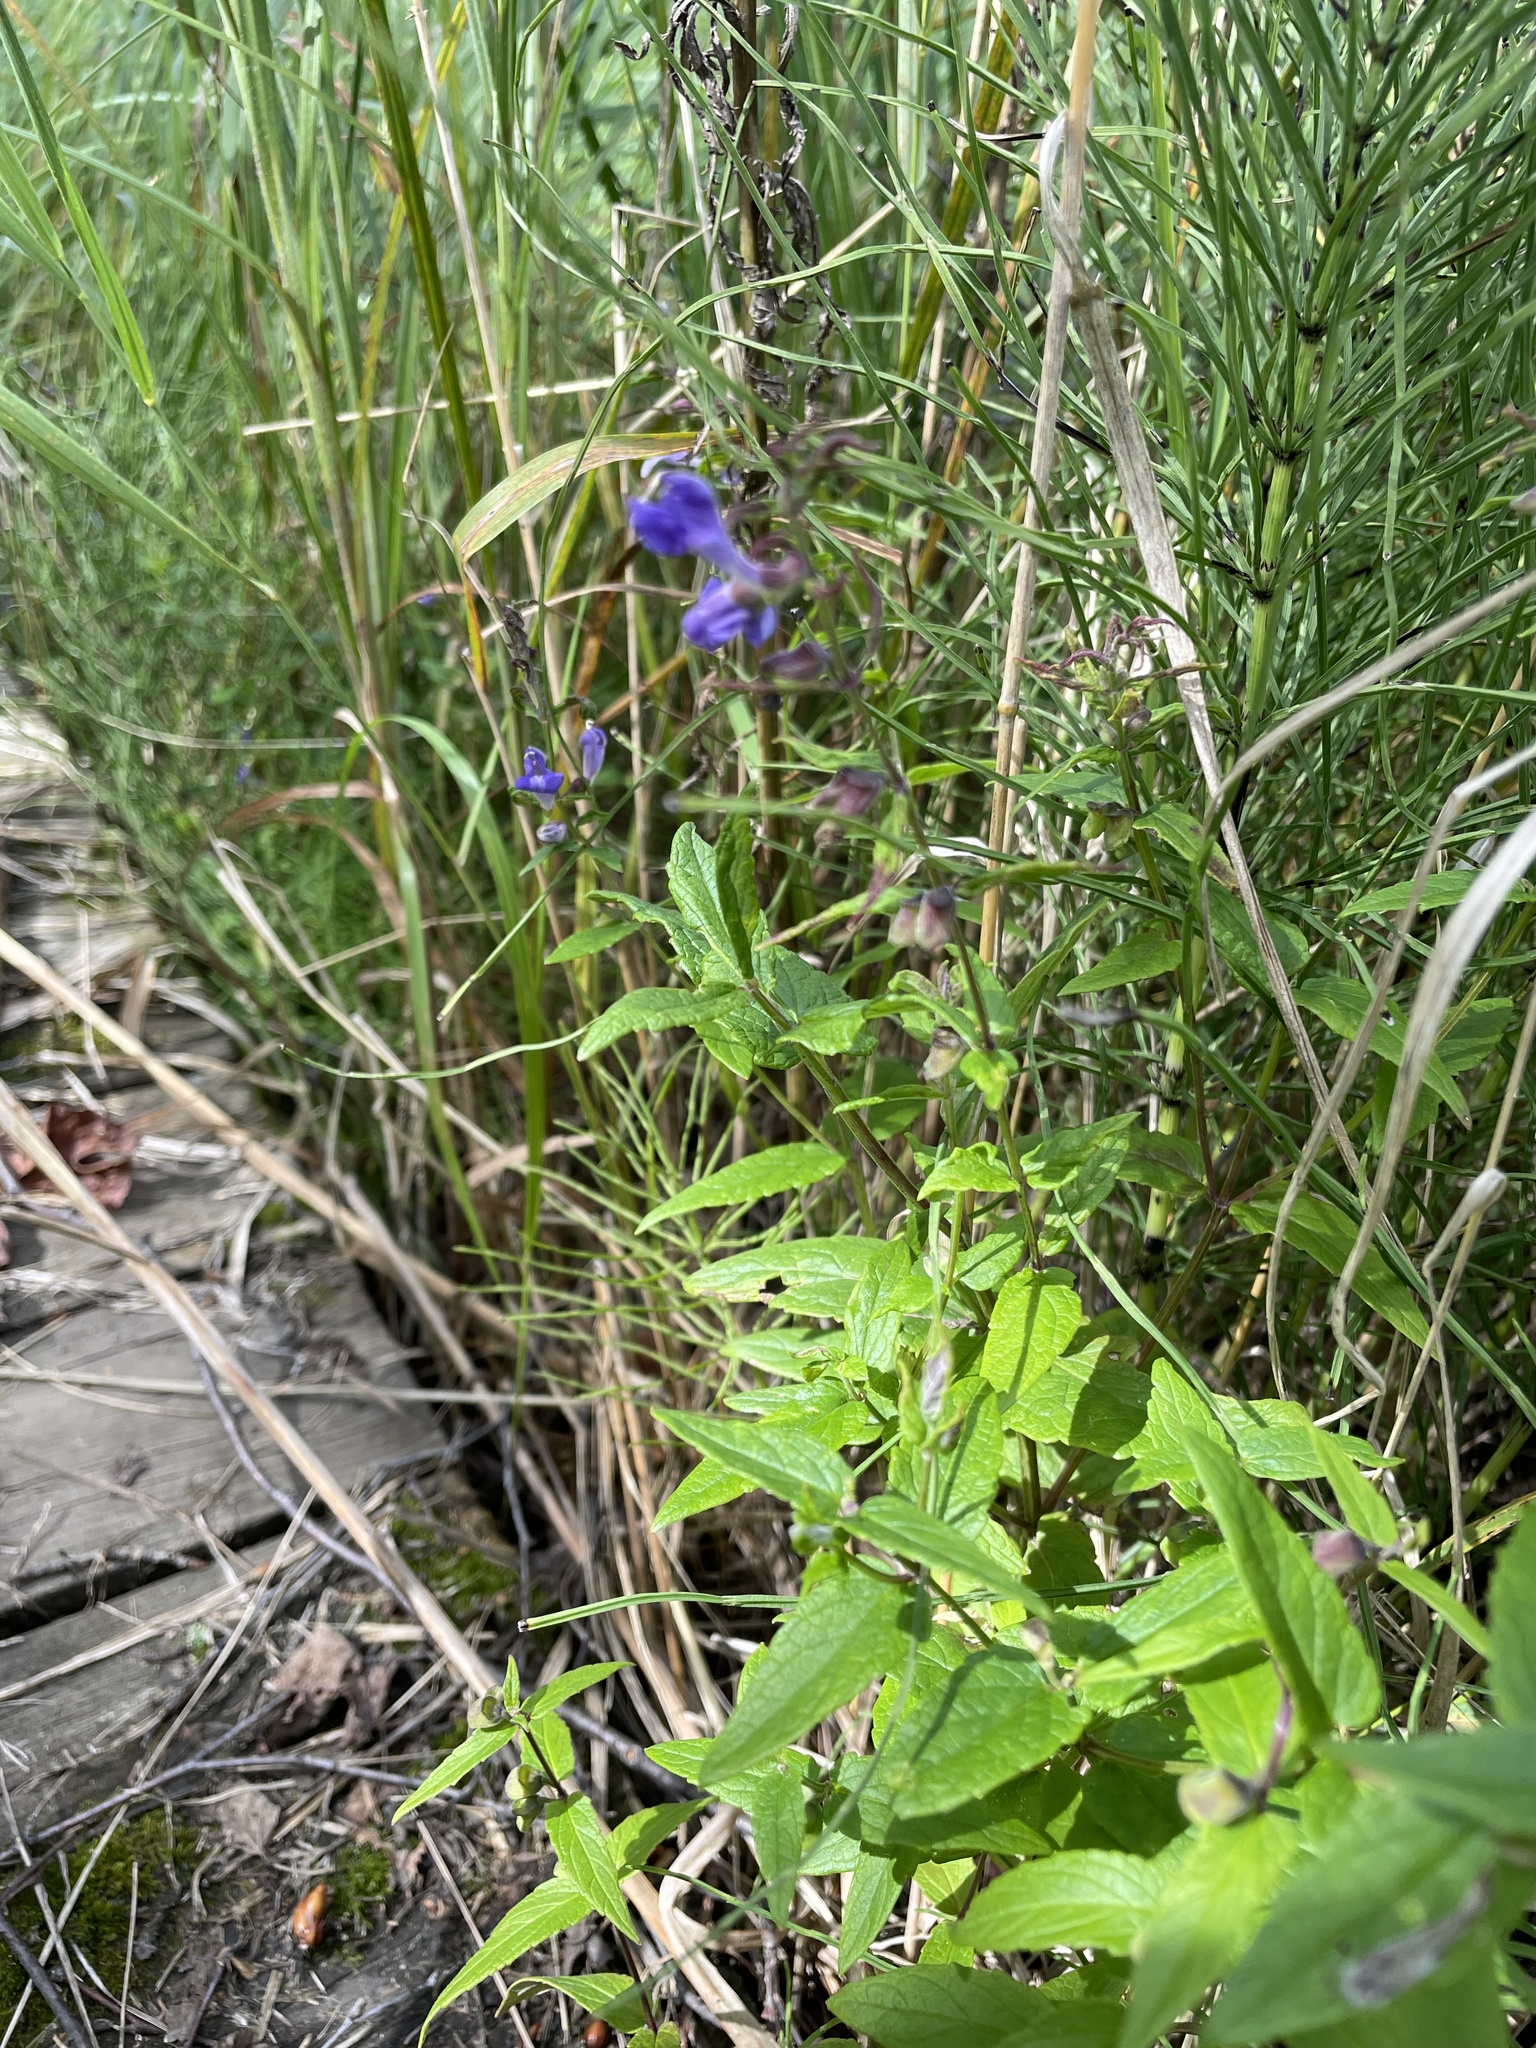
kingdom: Plantae
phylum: Tracheophyta
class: Magnoliopsida
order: Lamiales
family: Lamiaceae
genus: Scutellaria
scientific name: Scutellaria galericulata
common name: Skullcap
